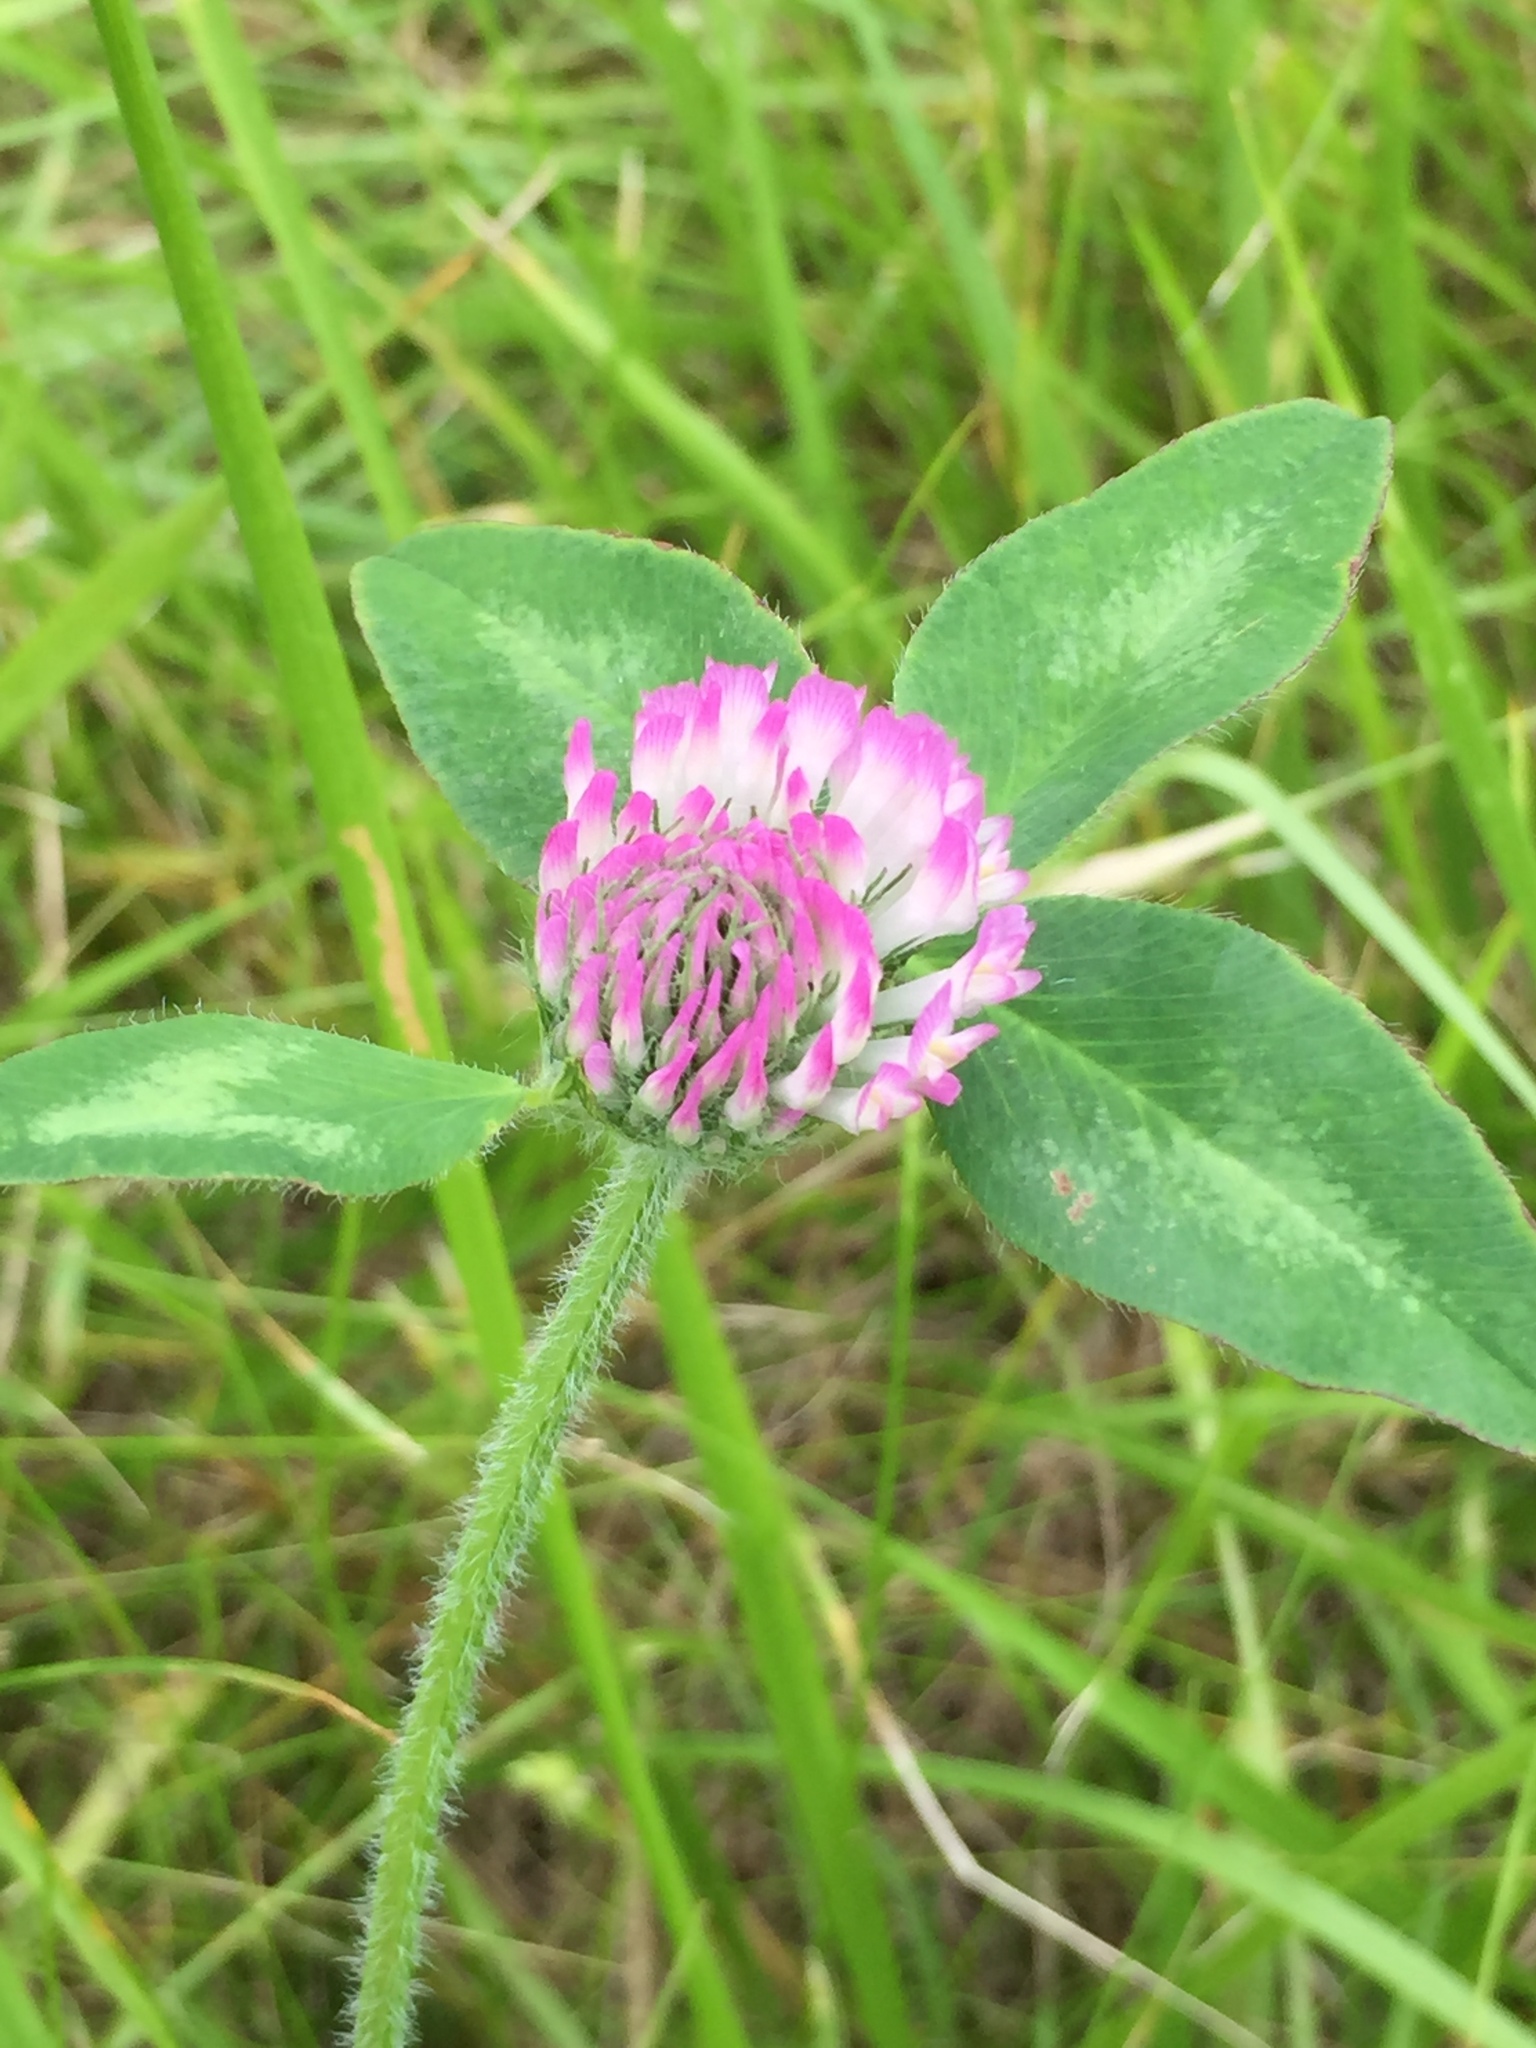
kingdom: Plantae
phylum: Tracheophyta
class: Magnoliopsida
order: Fabales
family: Fabaceae
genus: Trifolium
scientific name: Trifolium pratense
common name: Red clover
